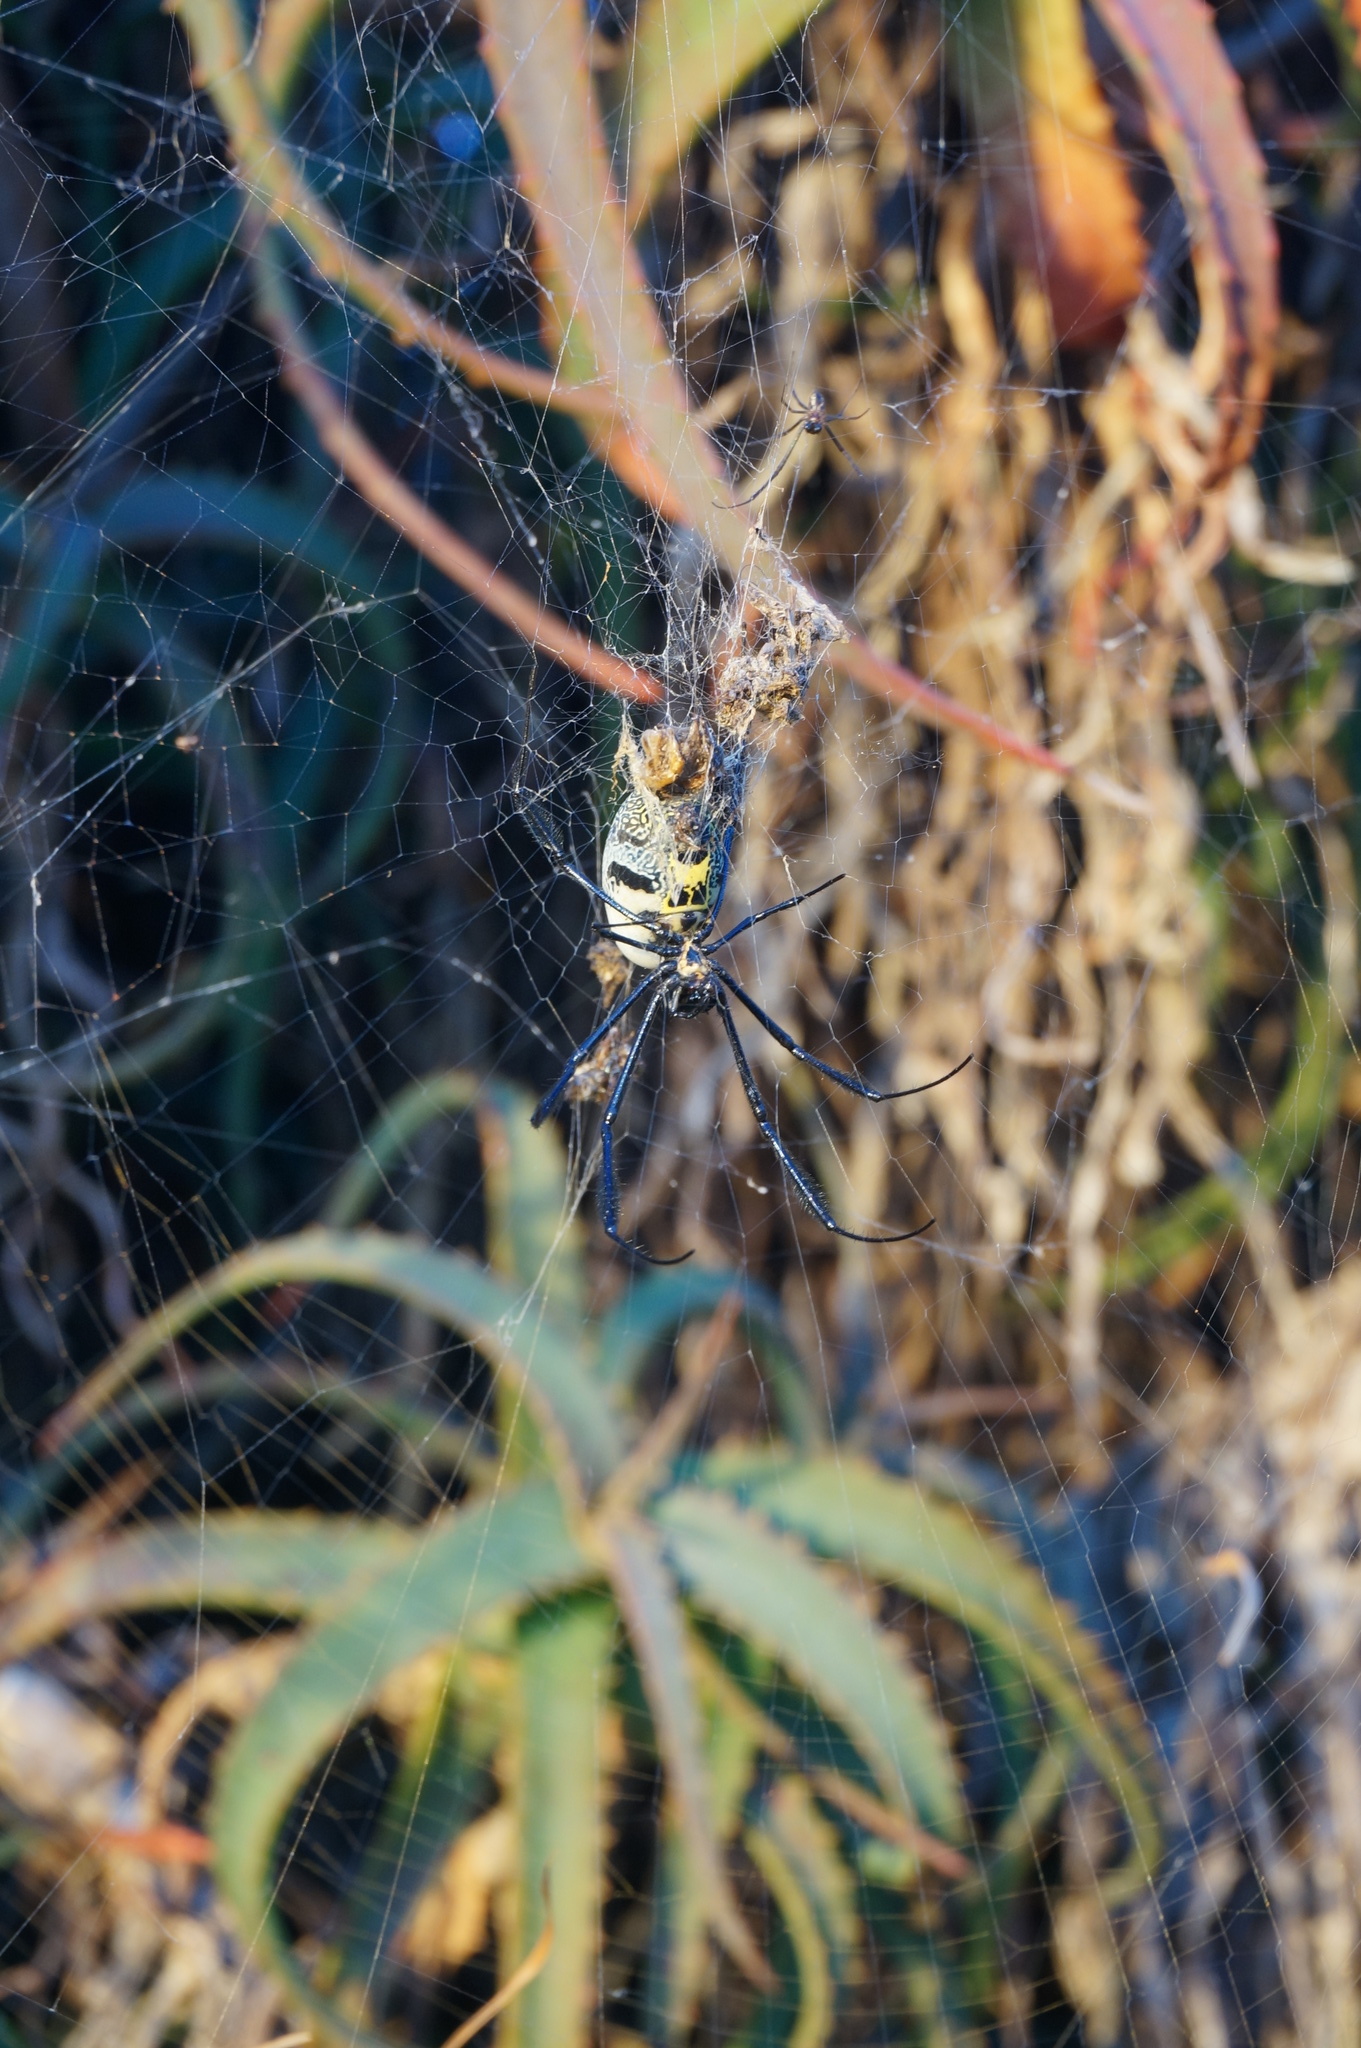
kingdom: Animalia
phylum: Arthropoda
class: Arachnida
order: Araneae
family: Araneidae
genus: Trichonephila
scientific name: Trichonephila fenestrata
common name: Hairy golden orb weaver
